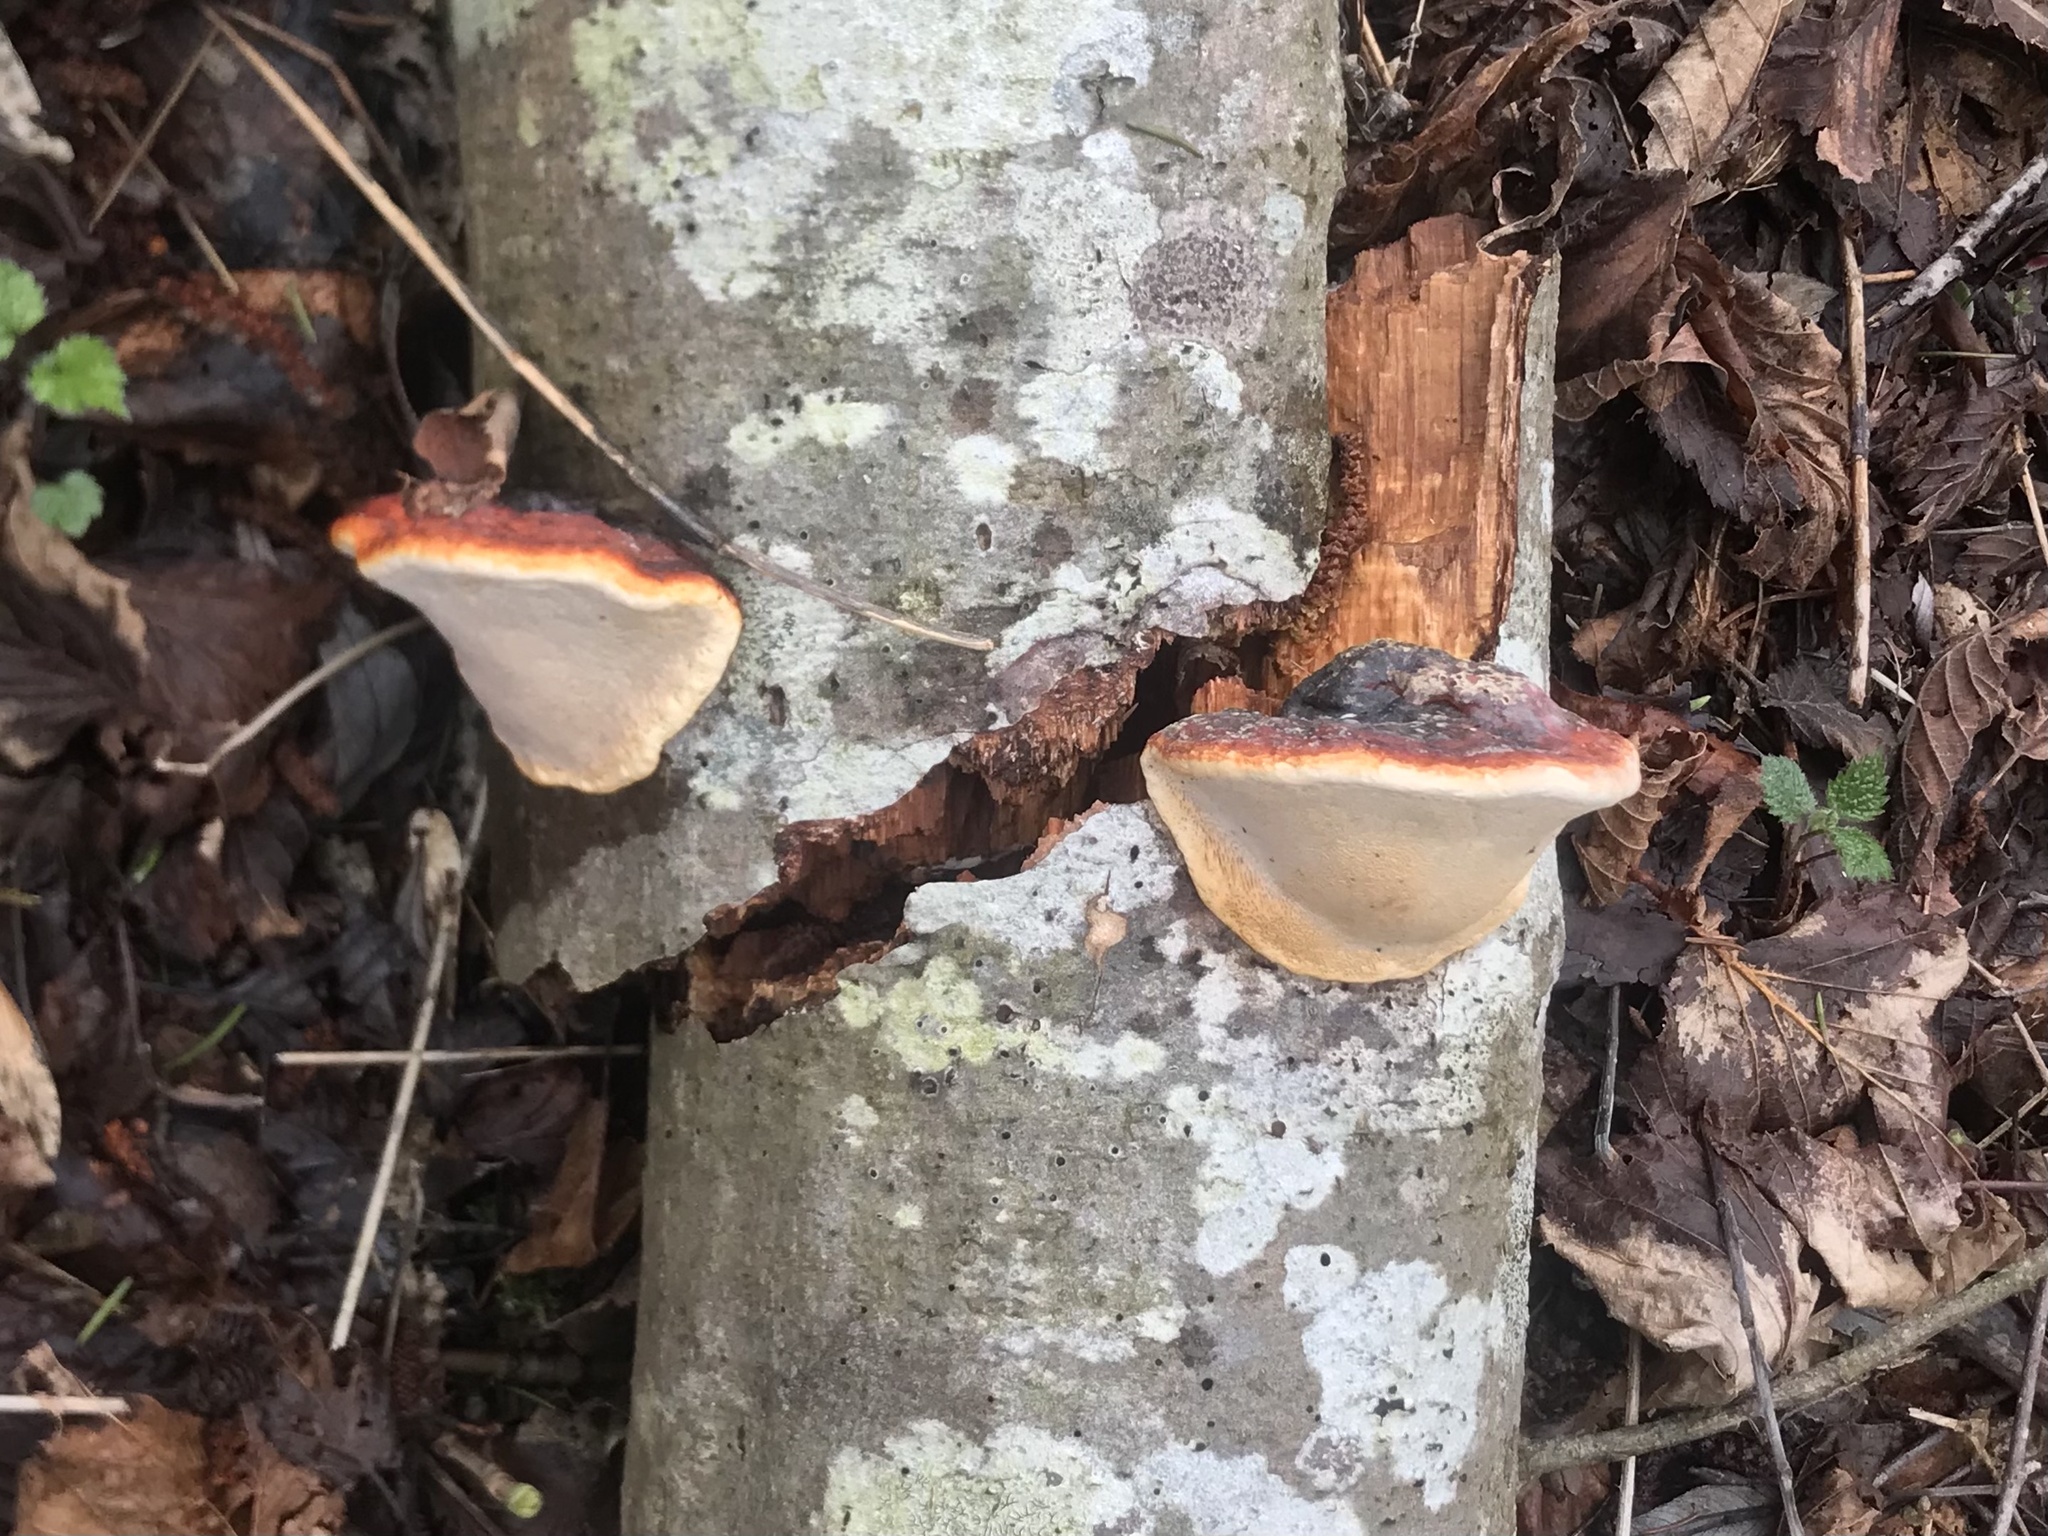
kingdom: Fungi
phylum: Basidiomycota
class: Agaricomycetes
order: Polyporales
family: Fomitopsidaceae
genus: Fomitopsis
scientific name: Fomitopsis pinicola
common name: Red-belted bracket
